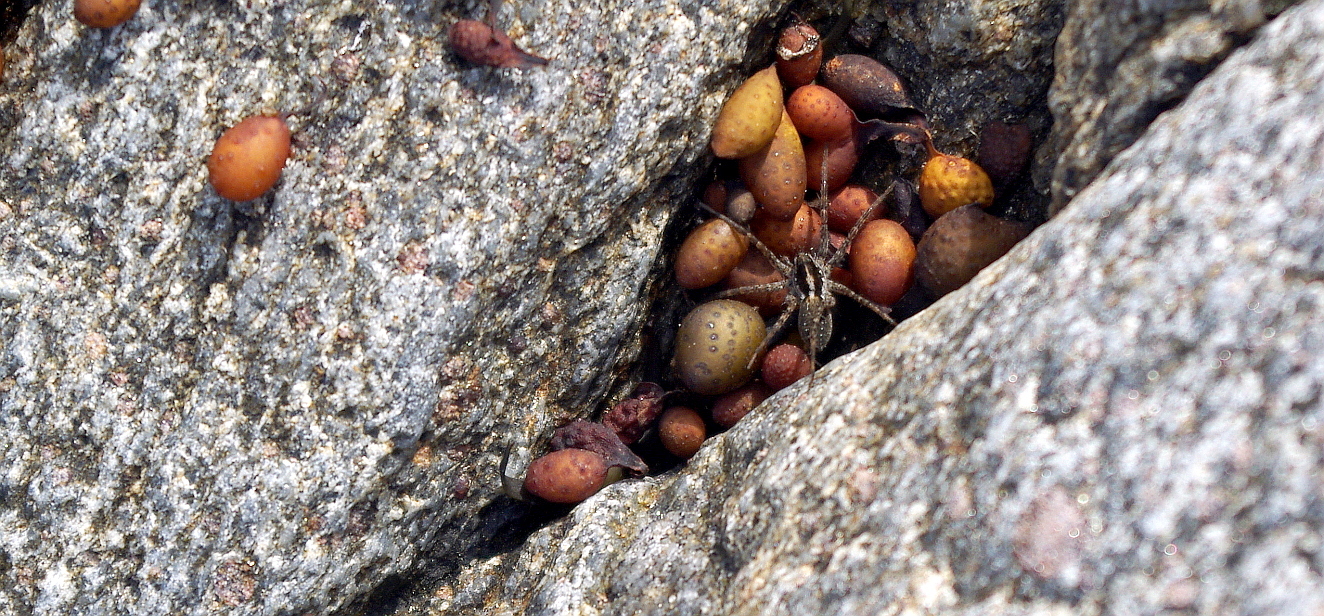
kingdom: Animalia
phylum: Arthropoda
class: Arachnida
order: Araneae
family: Lycosidae
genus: Pardosa
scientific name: Pardosa
